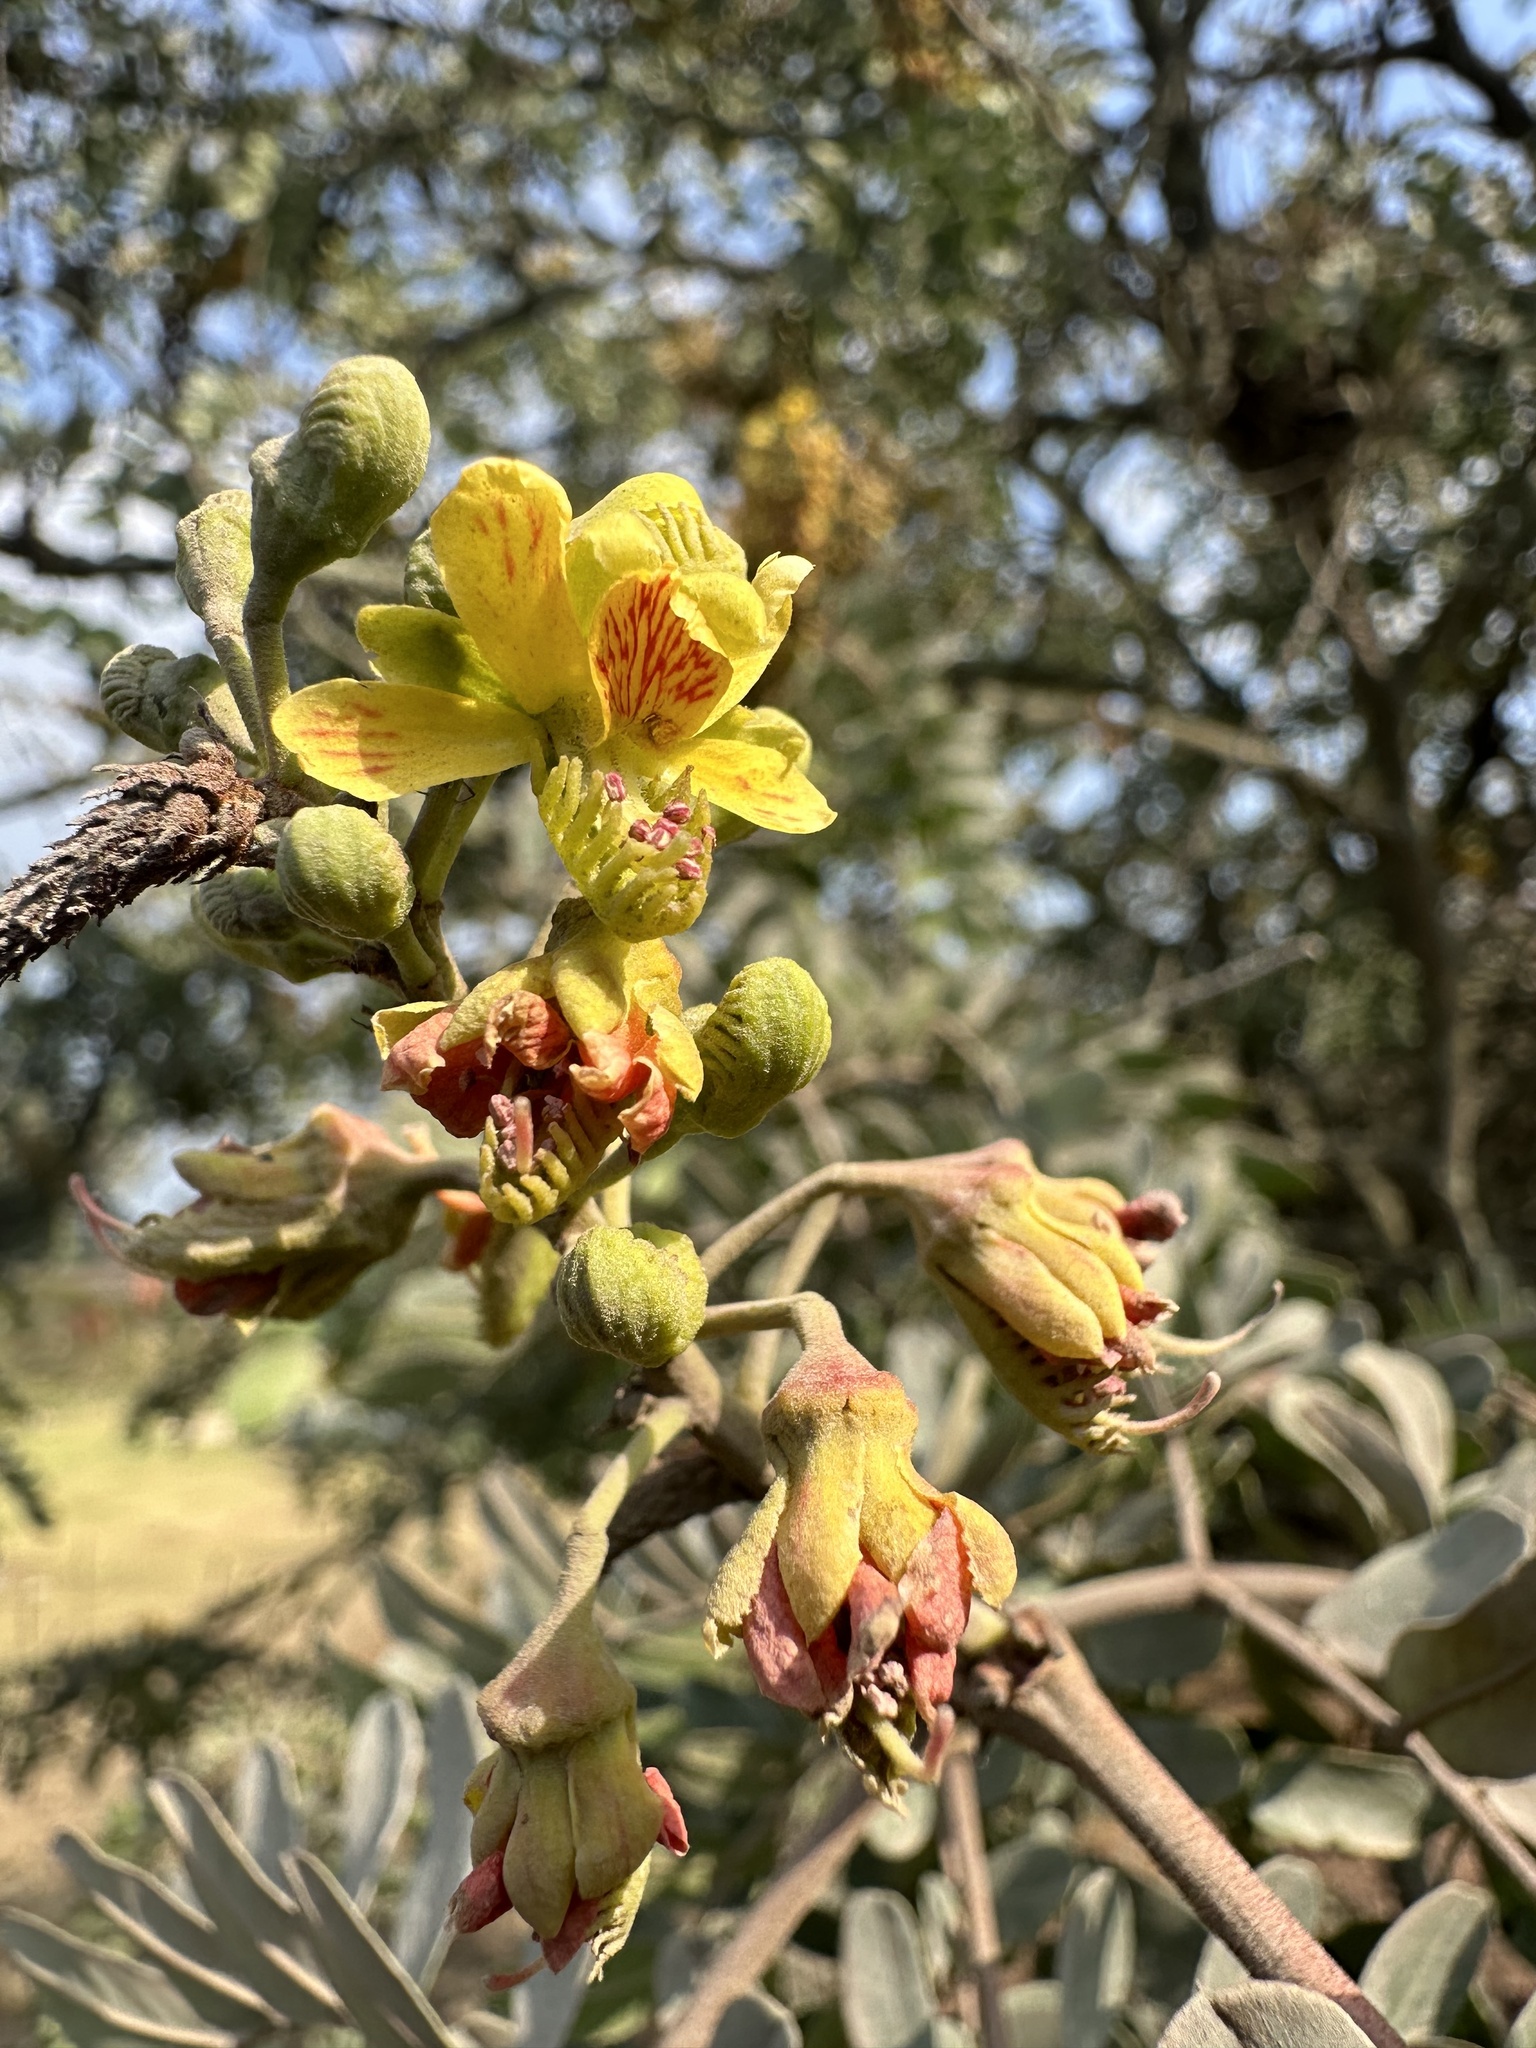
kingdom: Plantae
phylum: Tracheophyta
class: Magnoliopsida
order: Fabales
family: Fabaceae
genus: Tara
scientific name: Tara spinosa
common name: Spiny holdback
